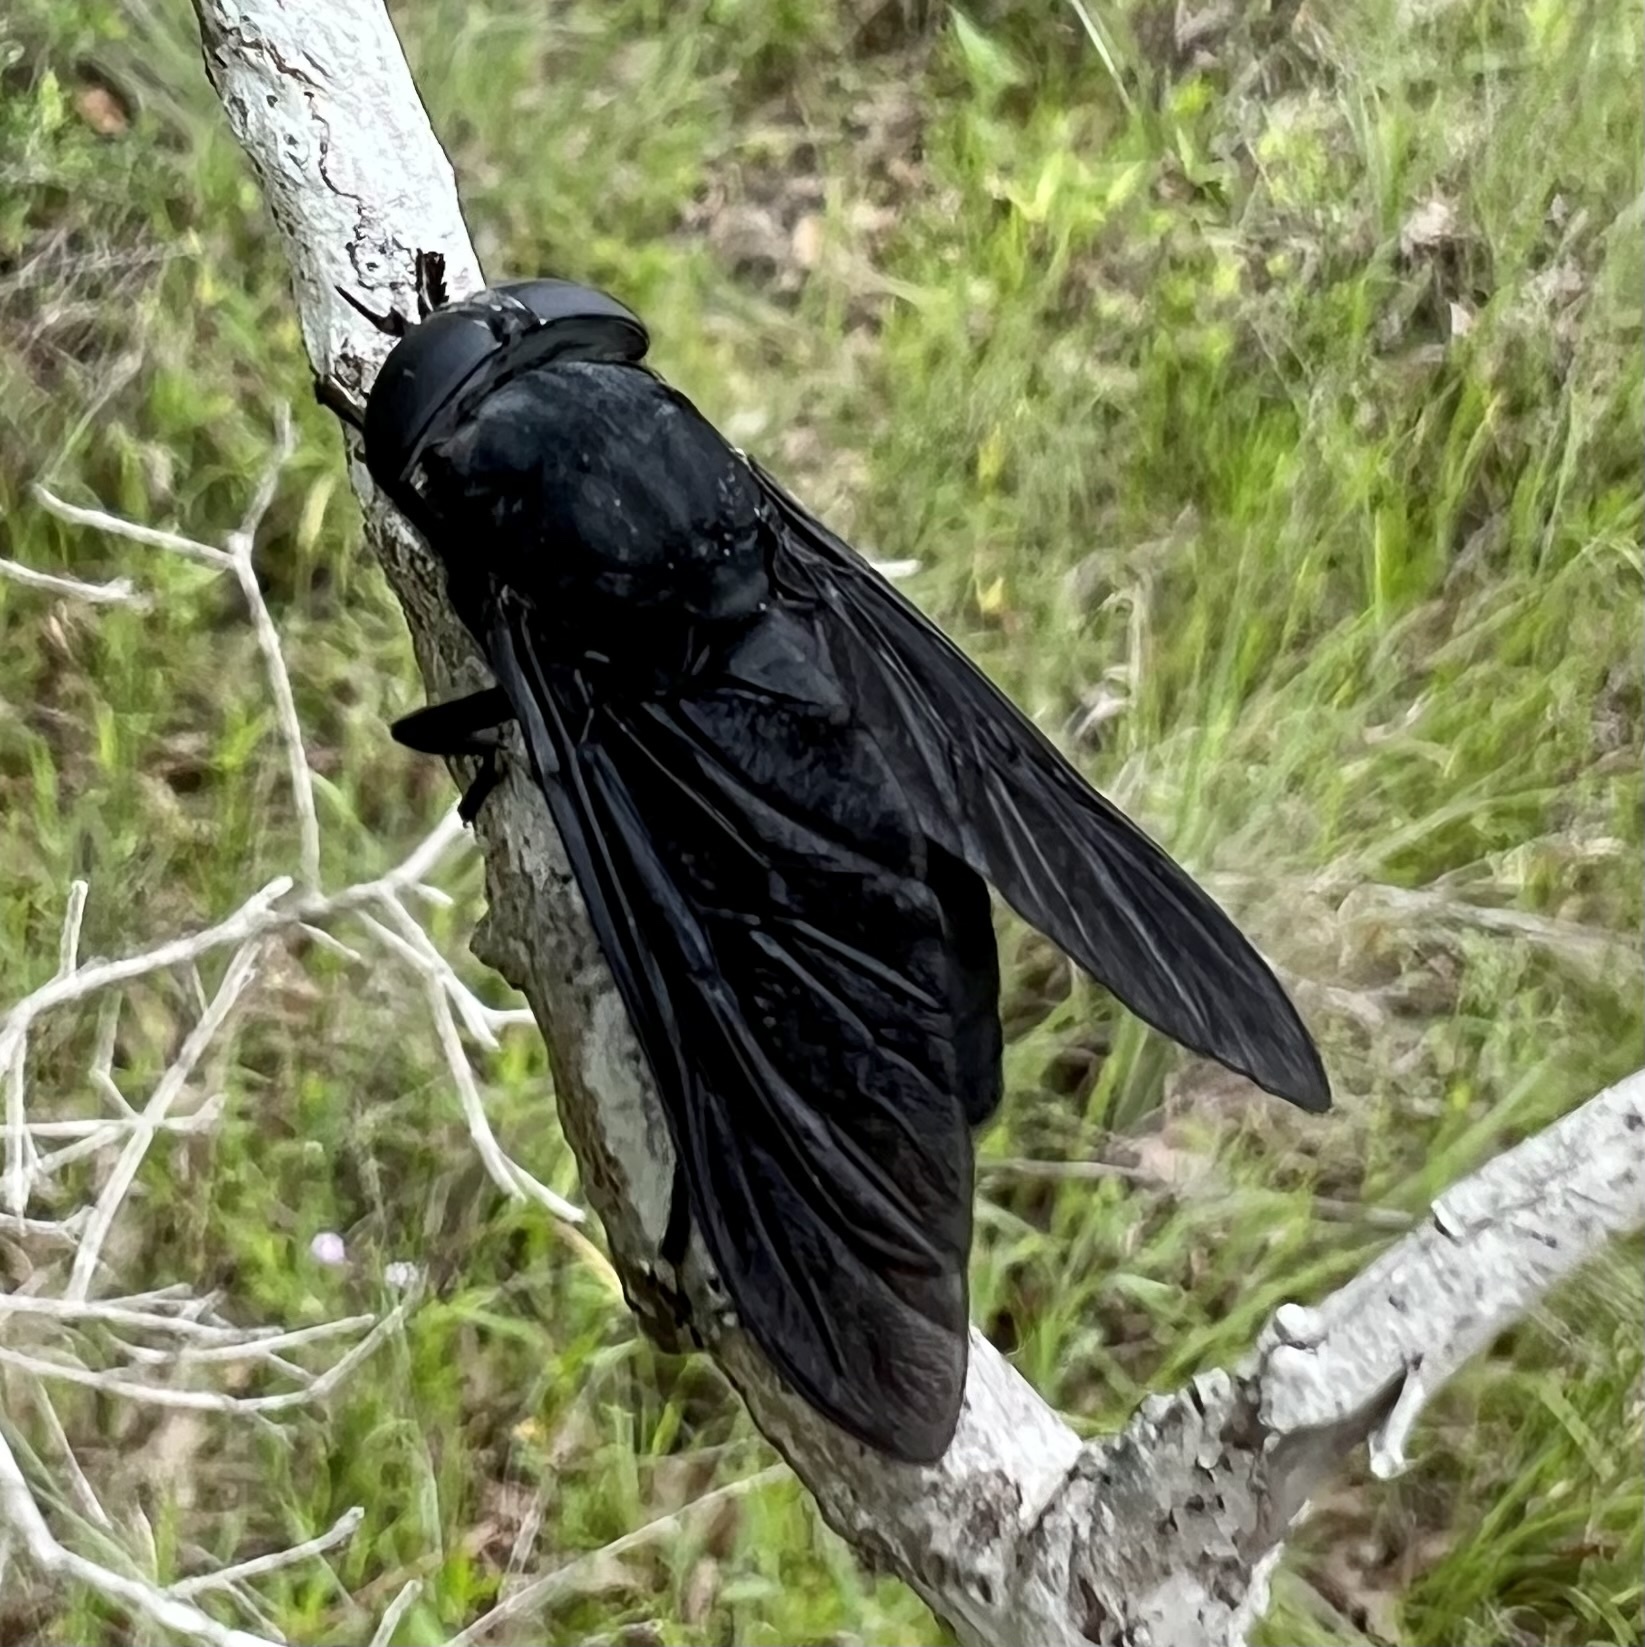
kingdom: Animalia
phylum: Arthropoda
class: Insecta
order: Diptera
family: Tabanidae
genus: Tabanus
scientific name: Tabanus atratus
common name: Black horse fly
